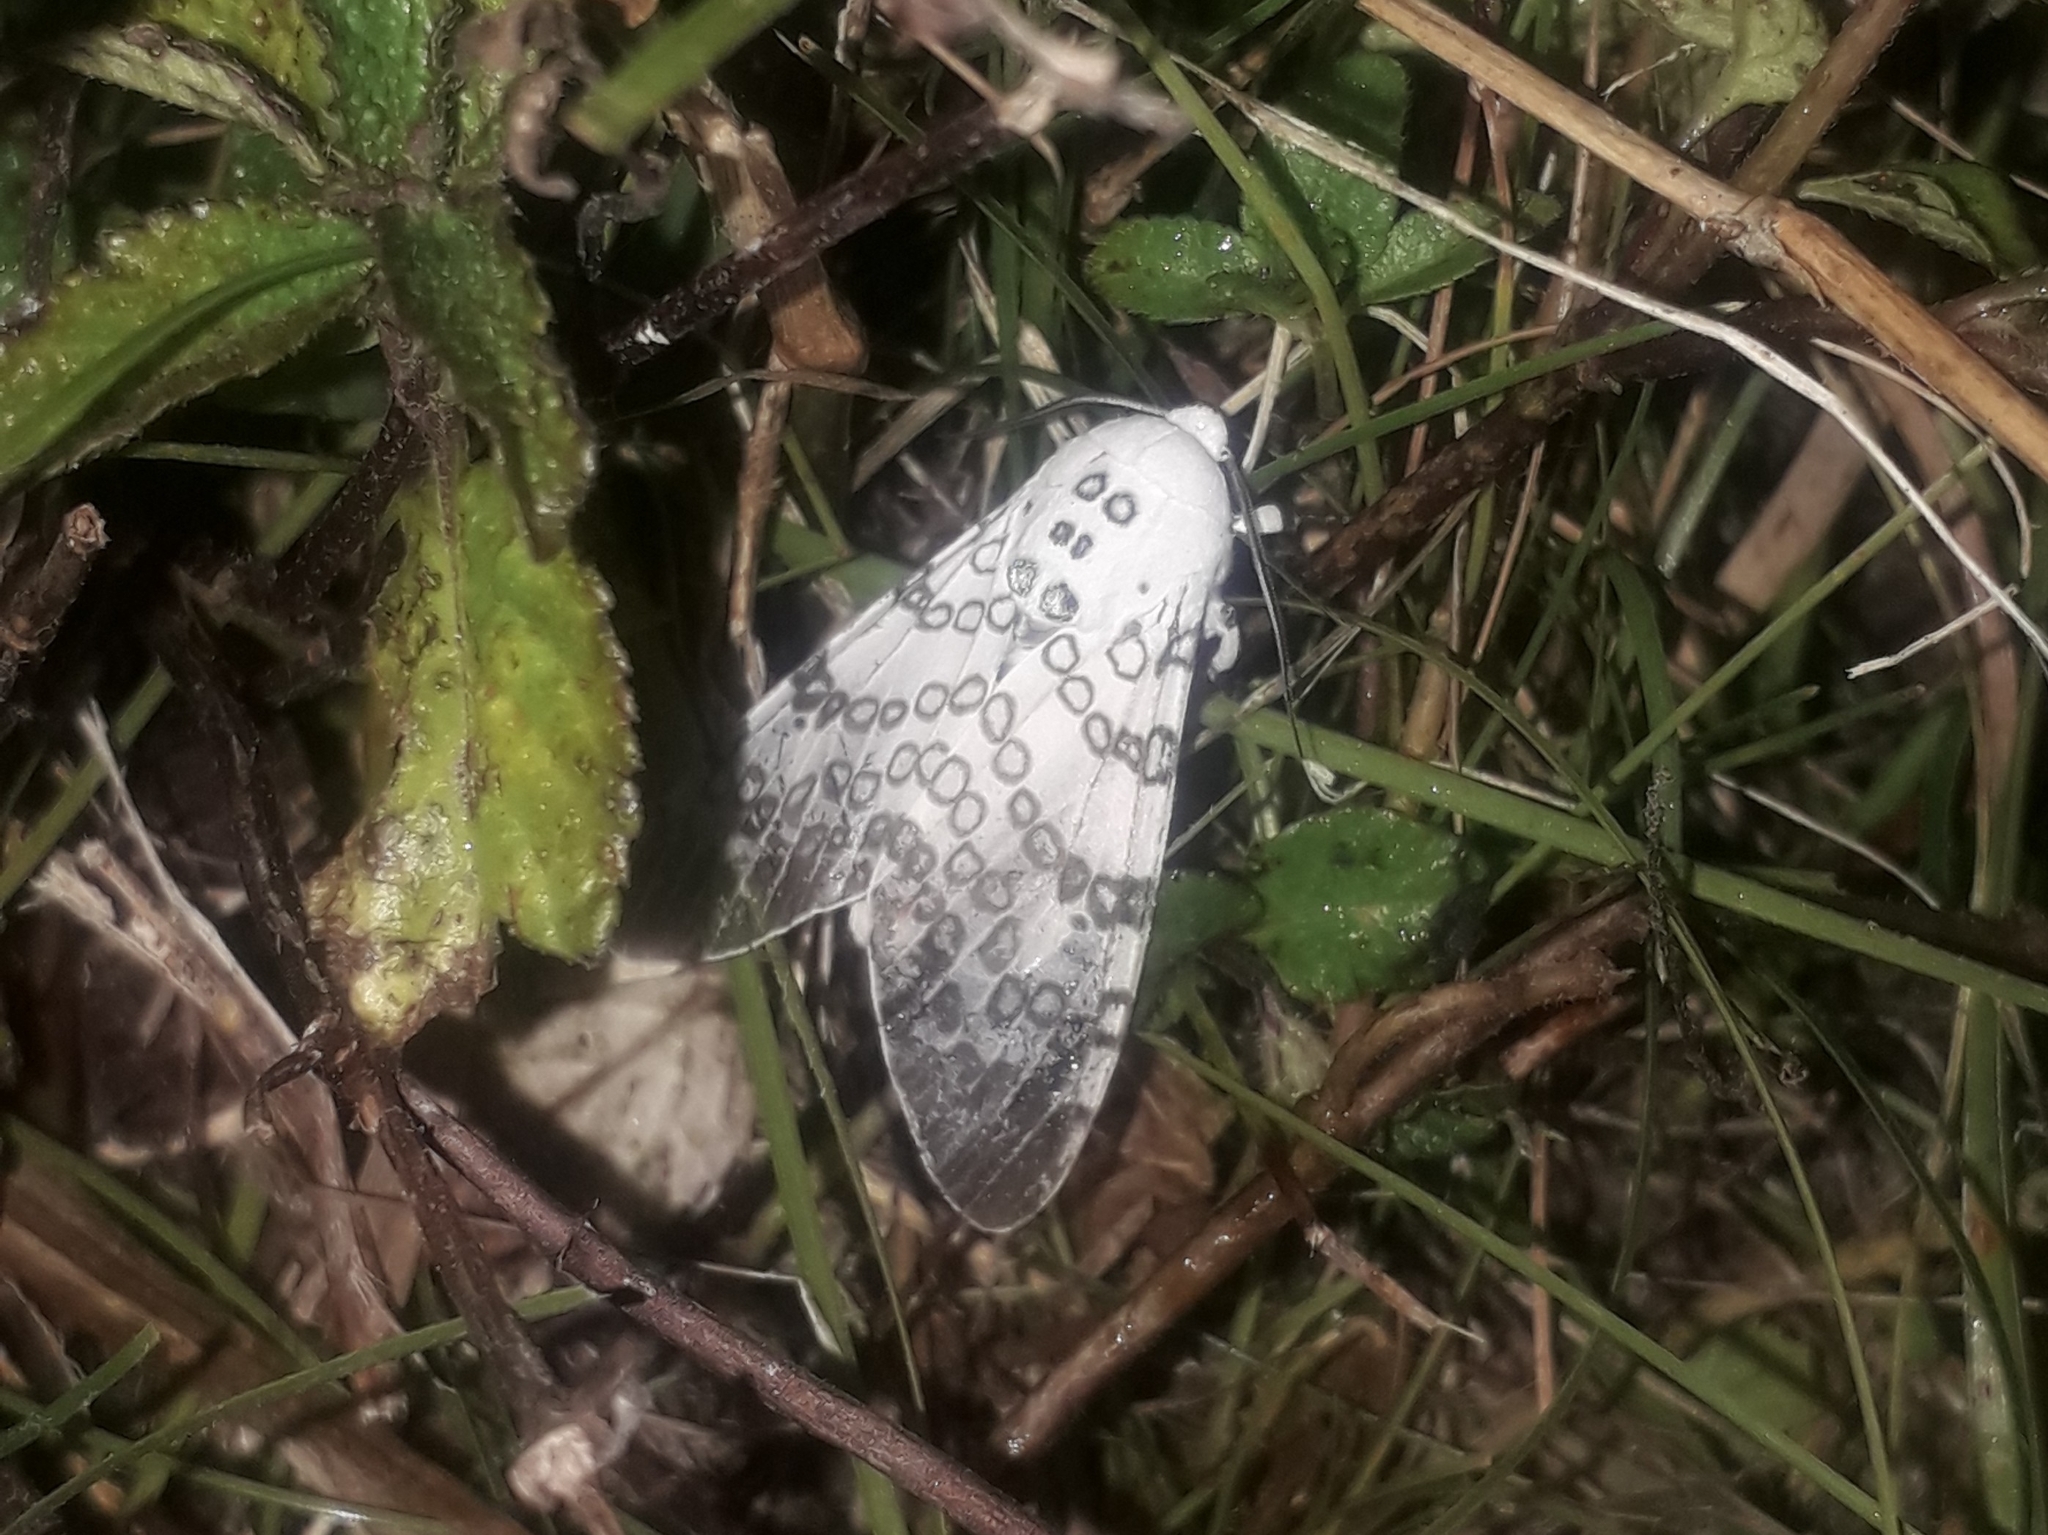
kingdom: Animalia
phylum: Arthropoda
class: Insecta
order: Lepidoptera
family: Erebidae
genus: Hypercompe
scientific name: Hypercompe icasia
